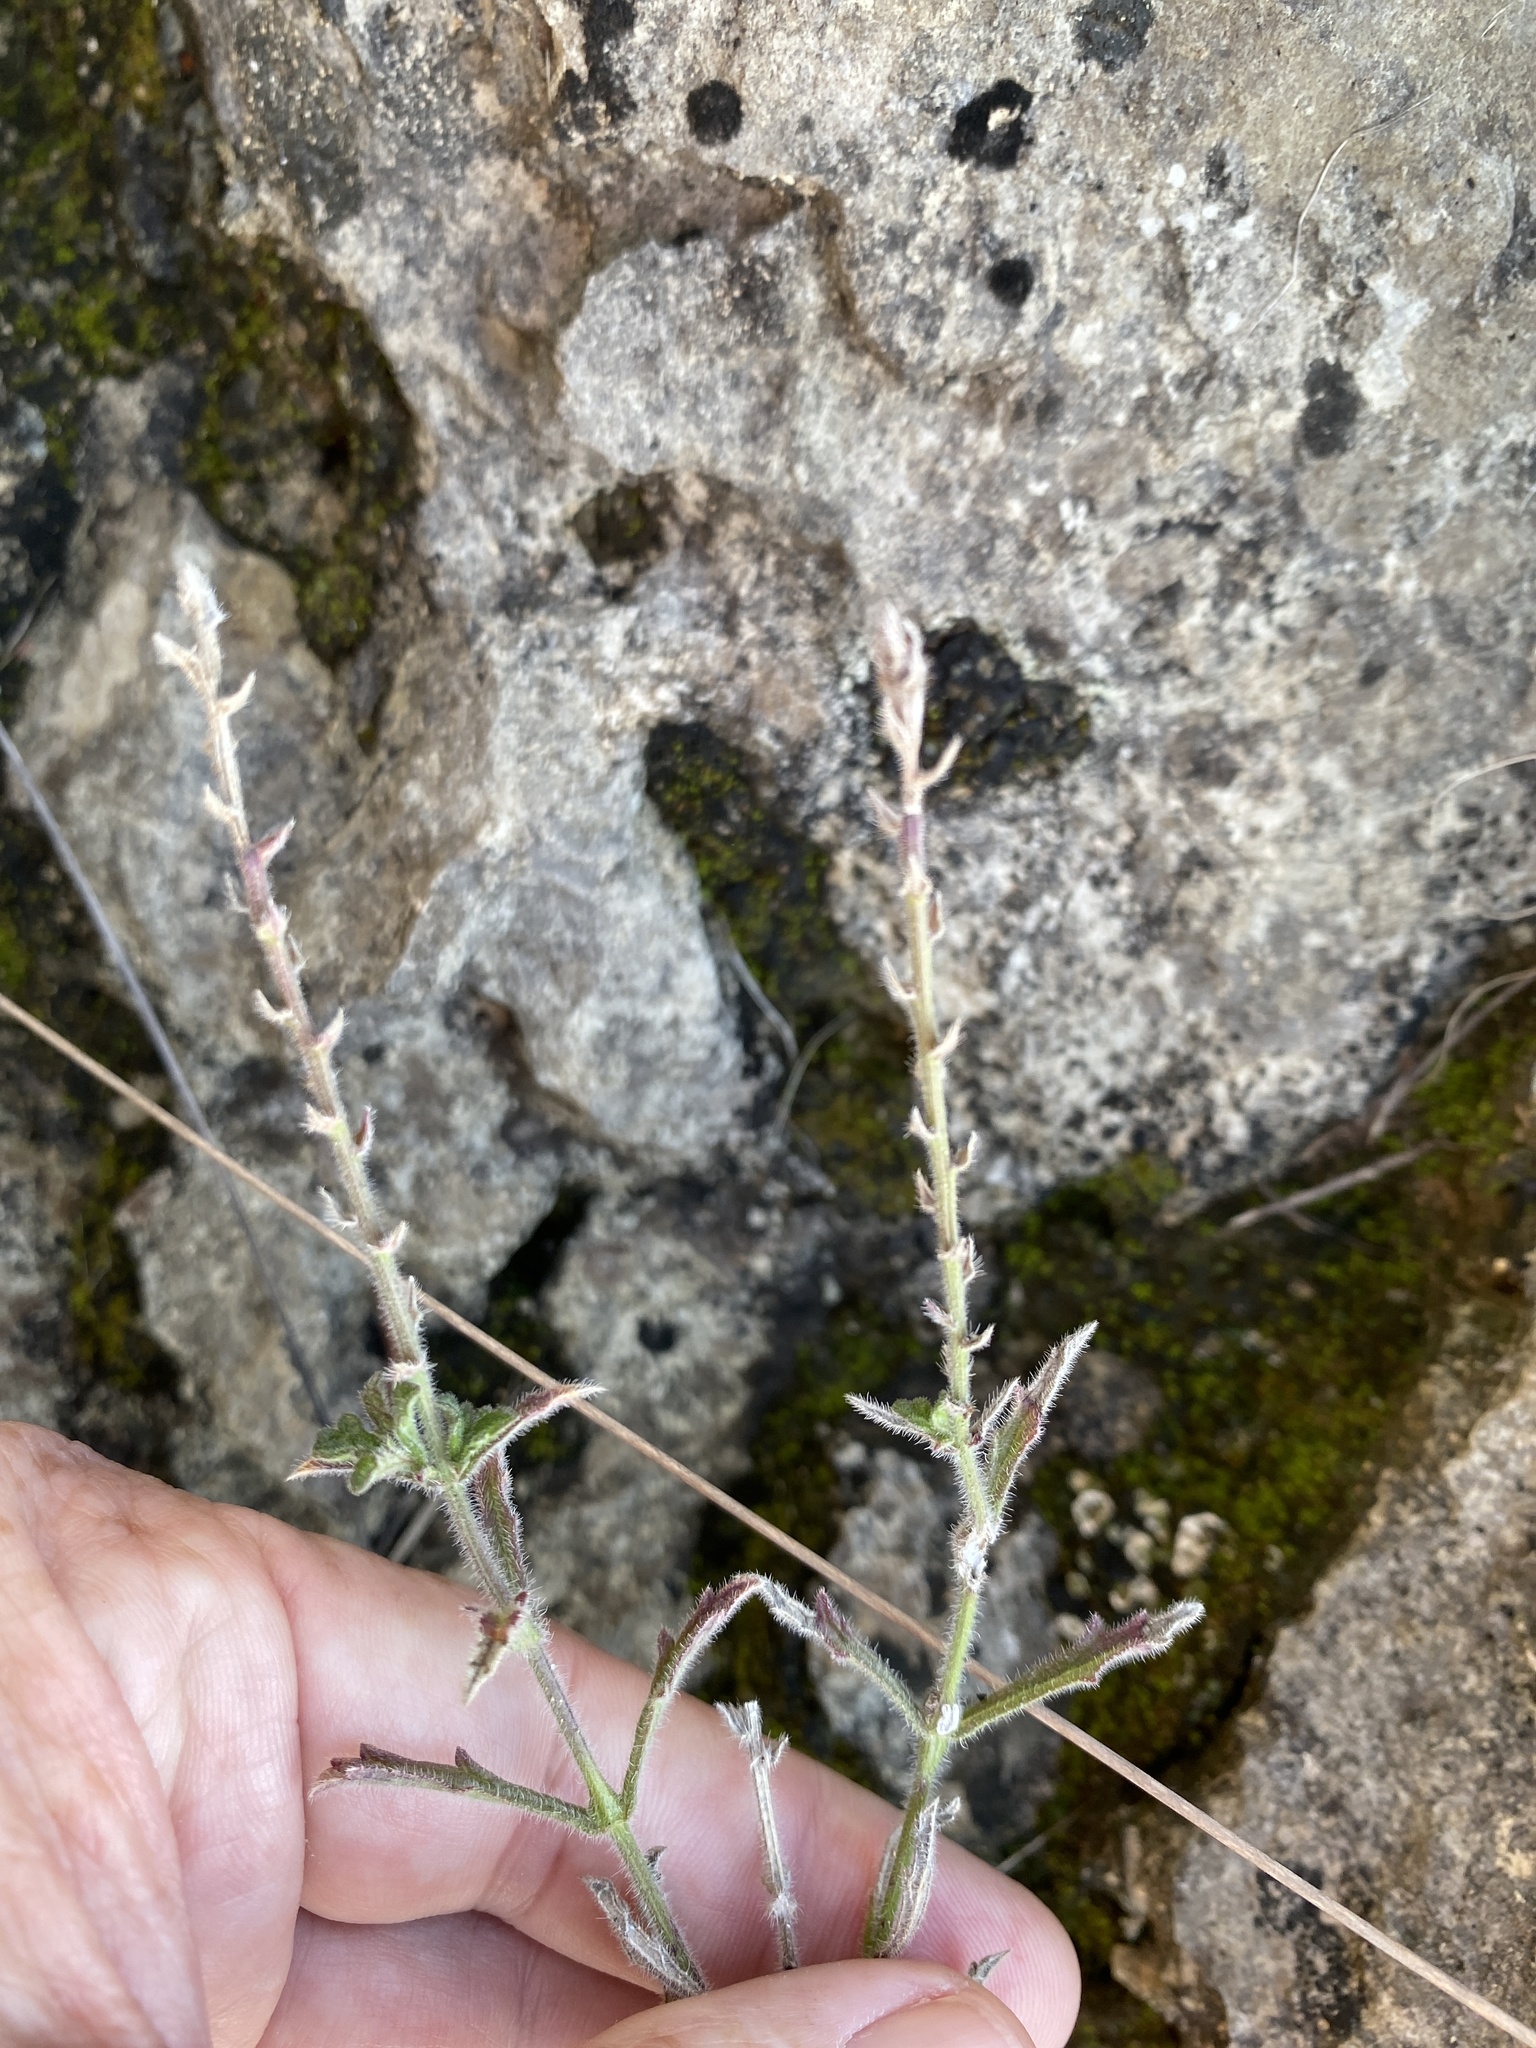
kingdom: Plantae
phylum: Tracheophyta
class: Magnoliopsida
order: Lamiales
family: Verbenaceae
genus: Verbena
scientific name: Verbena canescens
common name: Gray vervain
